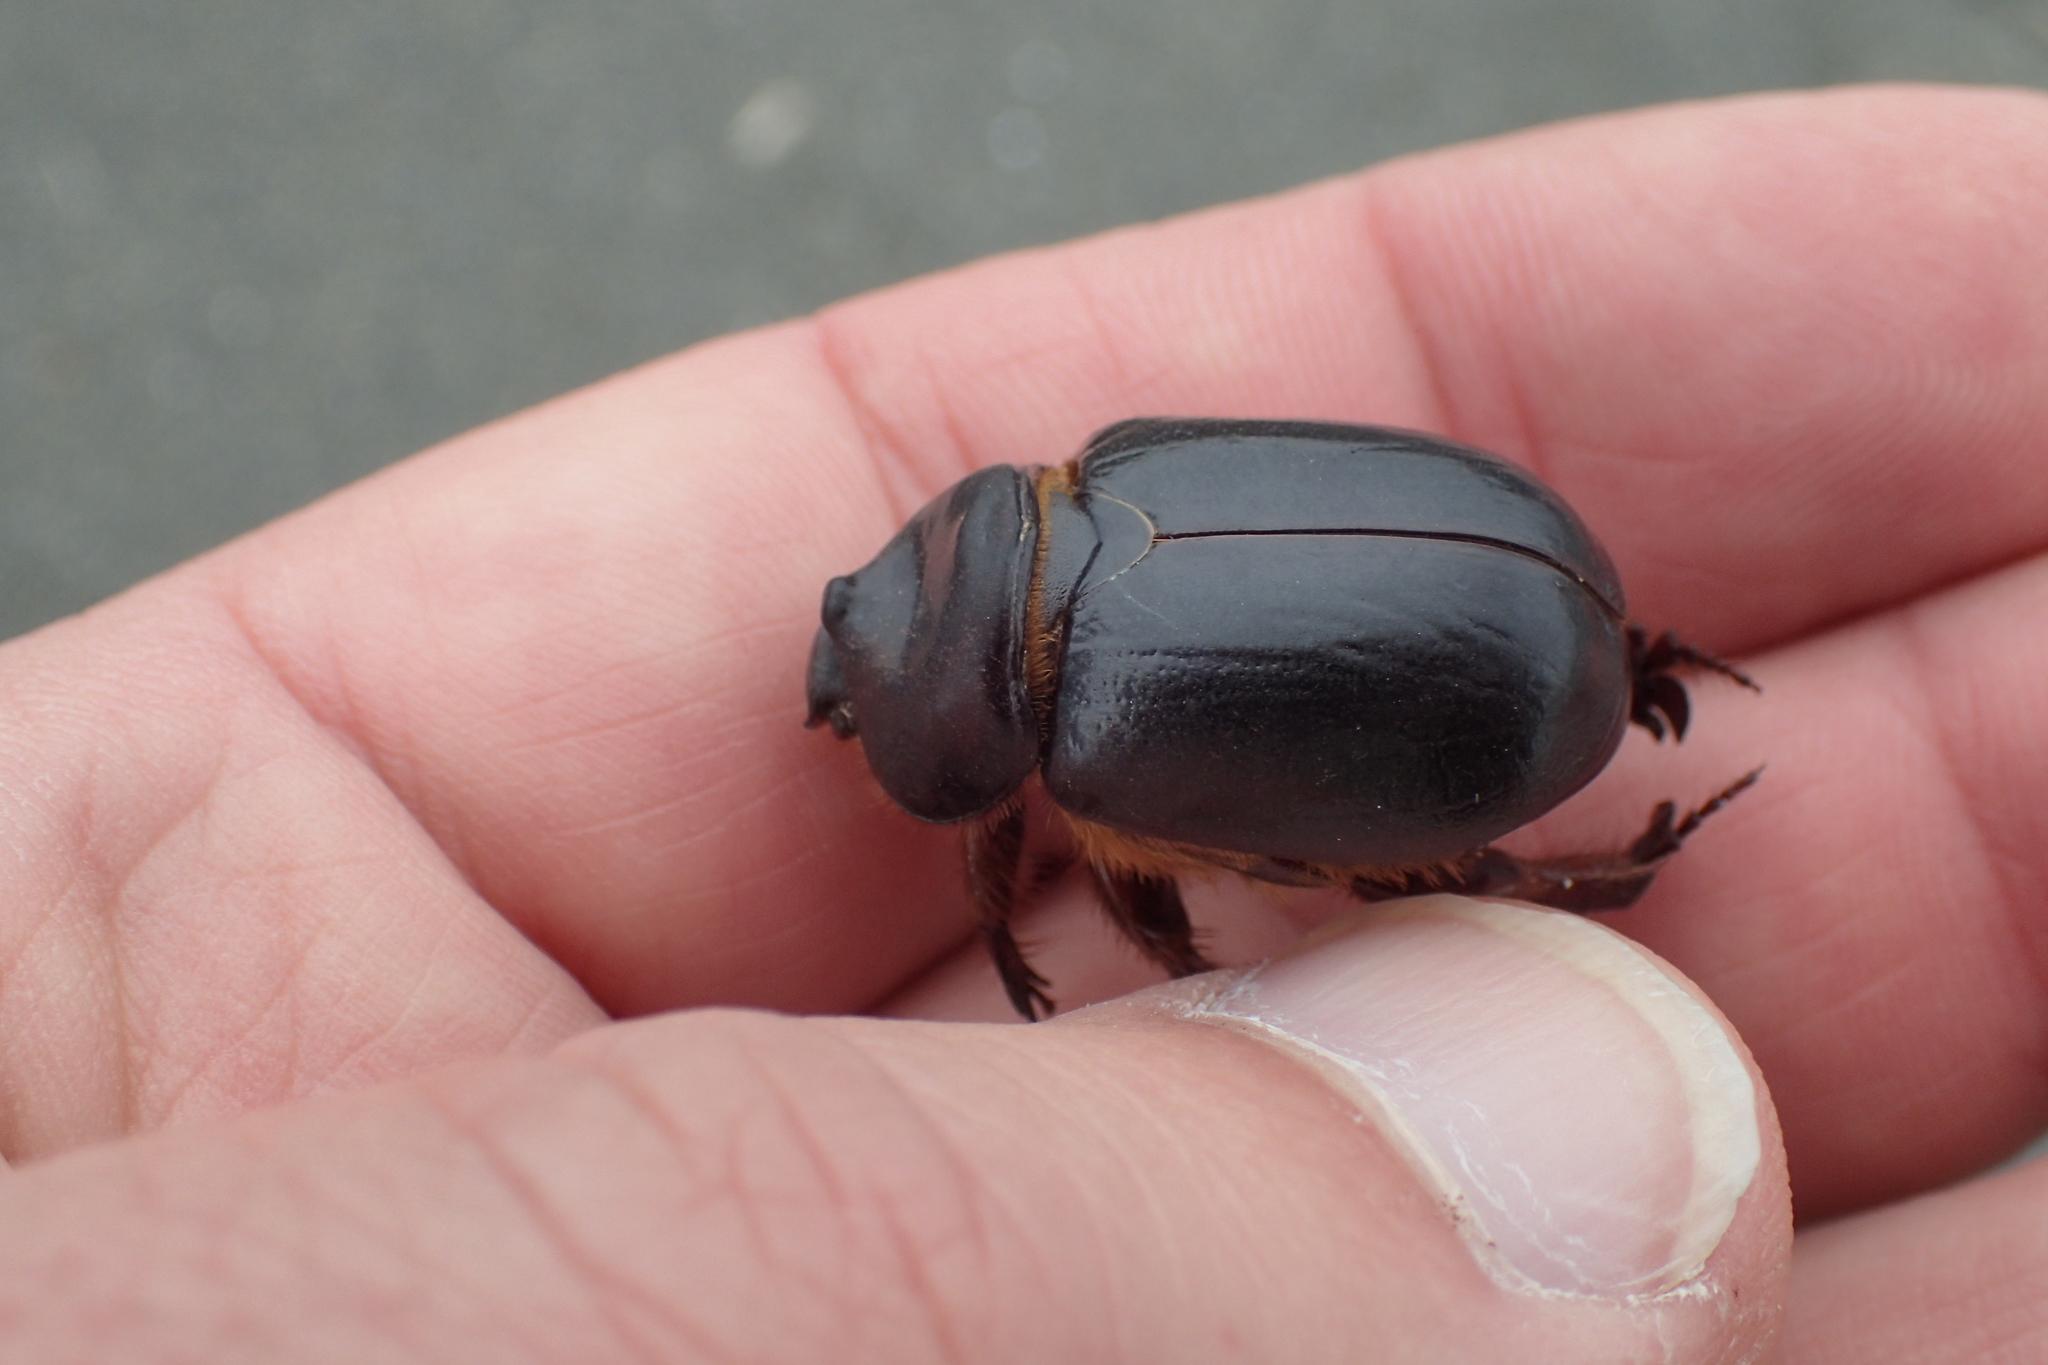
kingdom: Animalia
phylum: Arthropoda
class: Insecta
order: Coleoptera
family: Scarabaeidae
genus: Pericoptus
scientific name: Pericoptus truncatus
